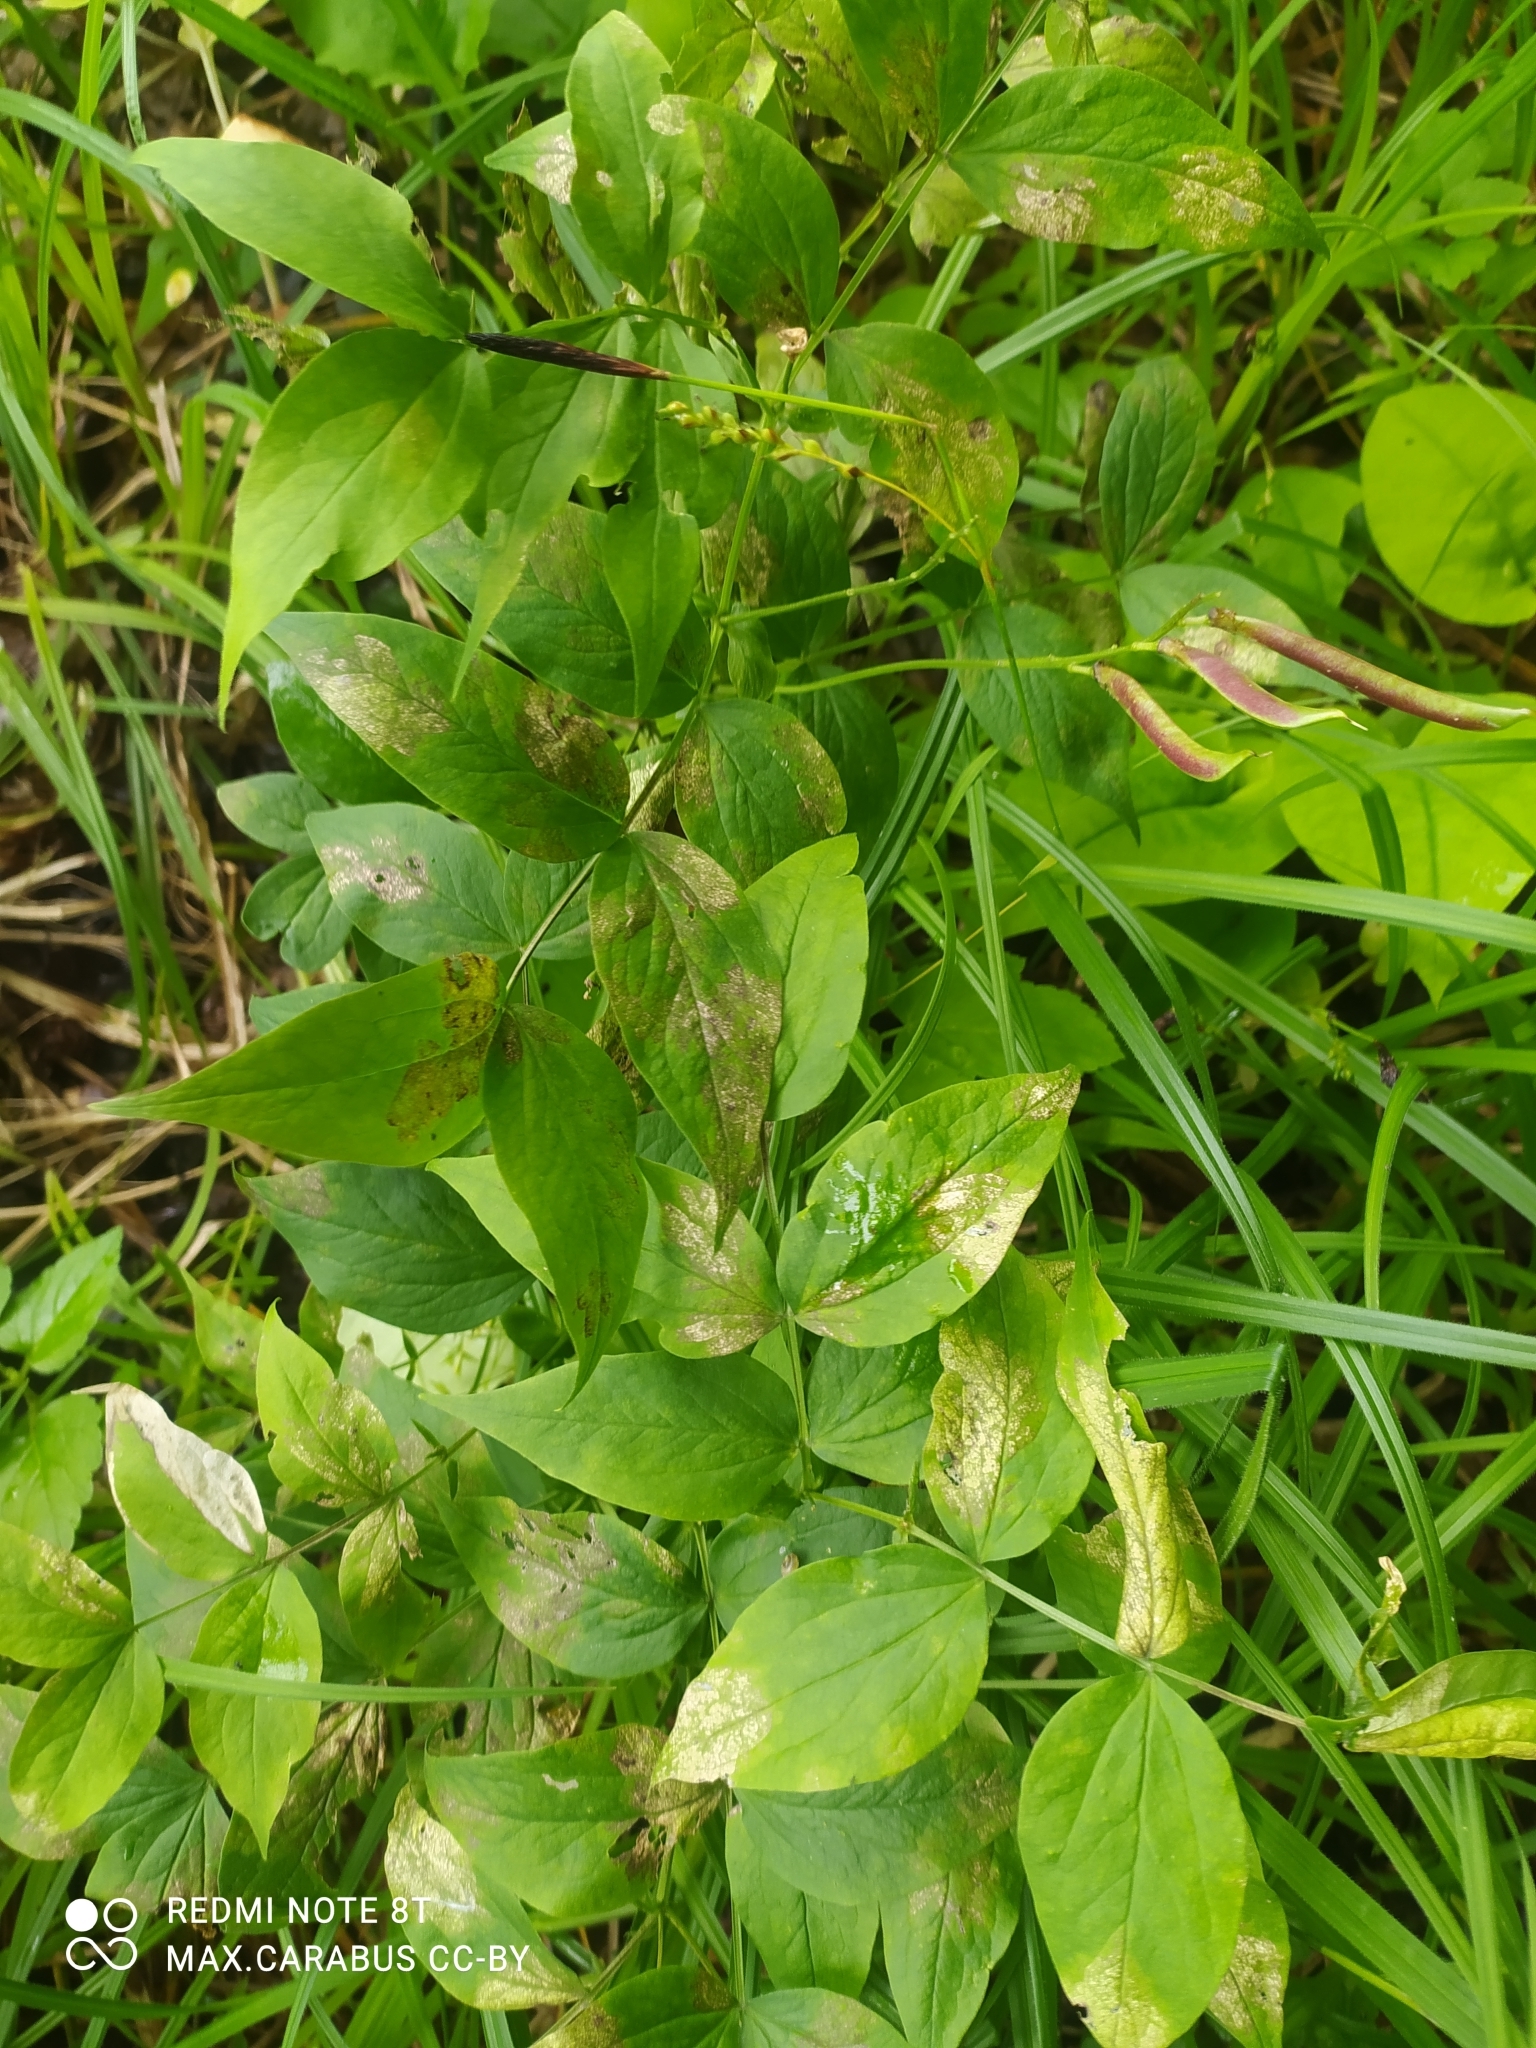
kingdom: Plantae
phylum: Tracheophyta
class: Magnoliopsida
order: Fabales
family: Fabaceae
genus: Lathyrus
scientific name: Lathyrus vernus
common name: Spring pea
